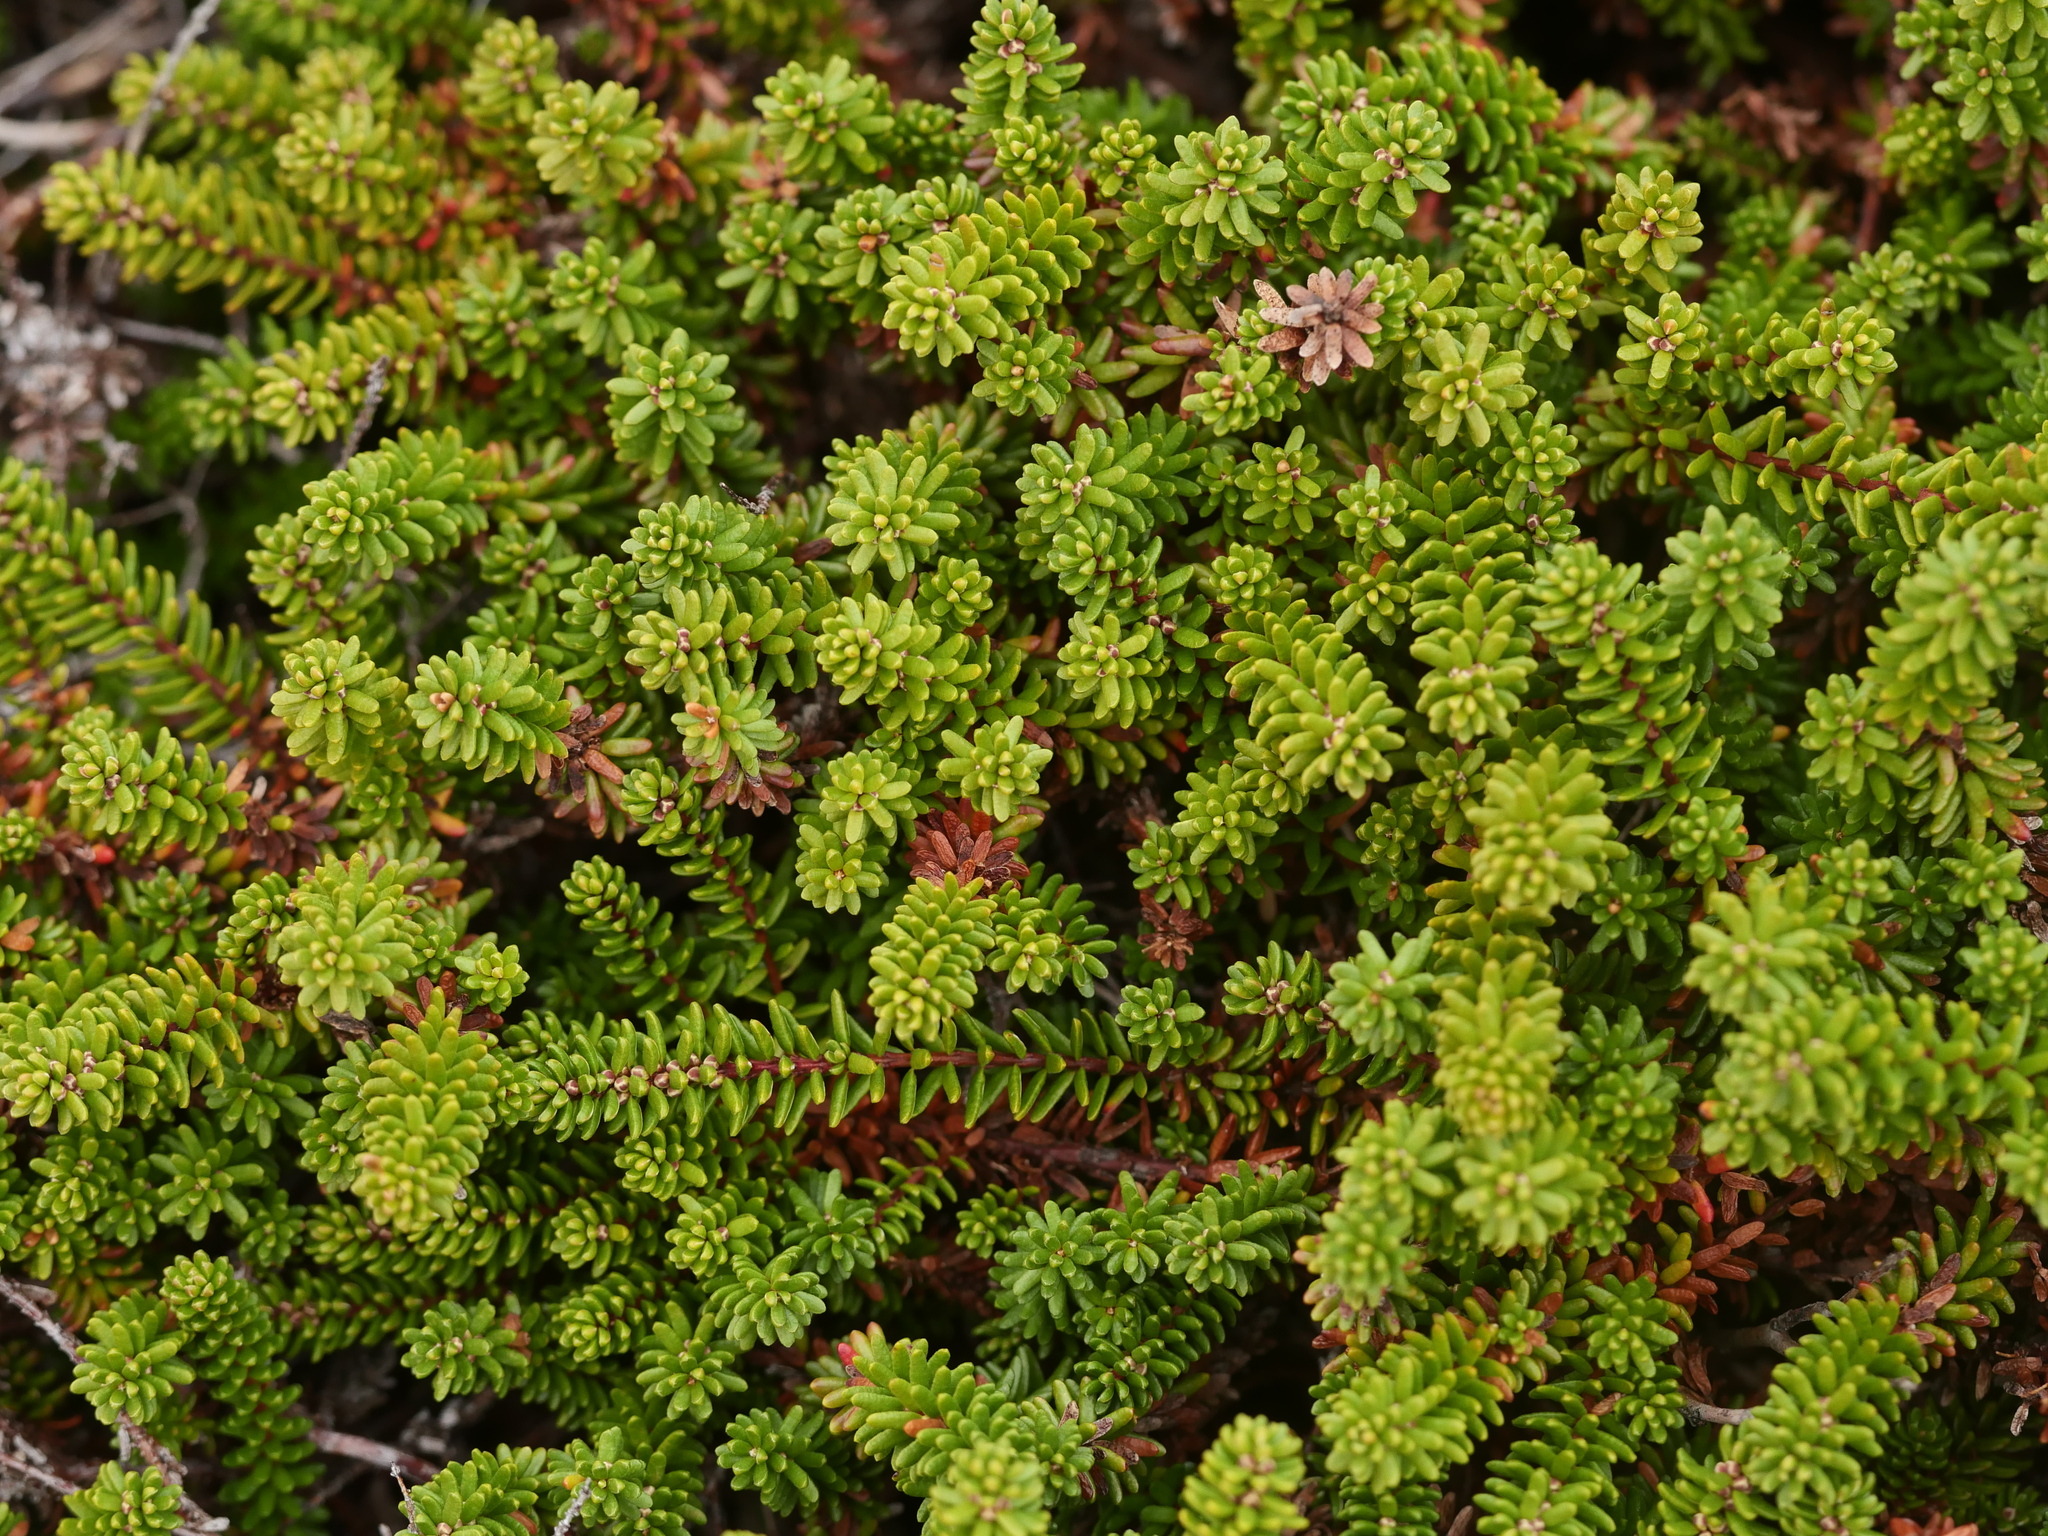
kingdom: Plantae
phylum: Tracheophyta
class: Magnoliopsida
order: Ericales
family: Ericaceae
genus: Empetrum
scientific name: Empetrum nigrum
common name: Black crowberry
